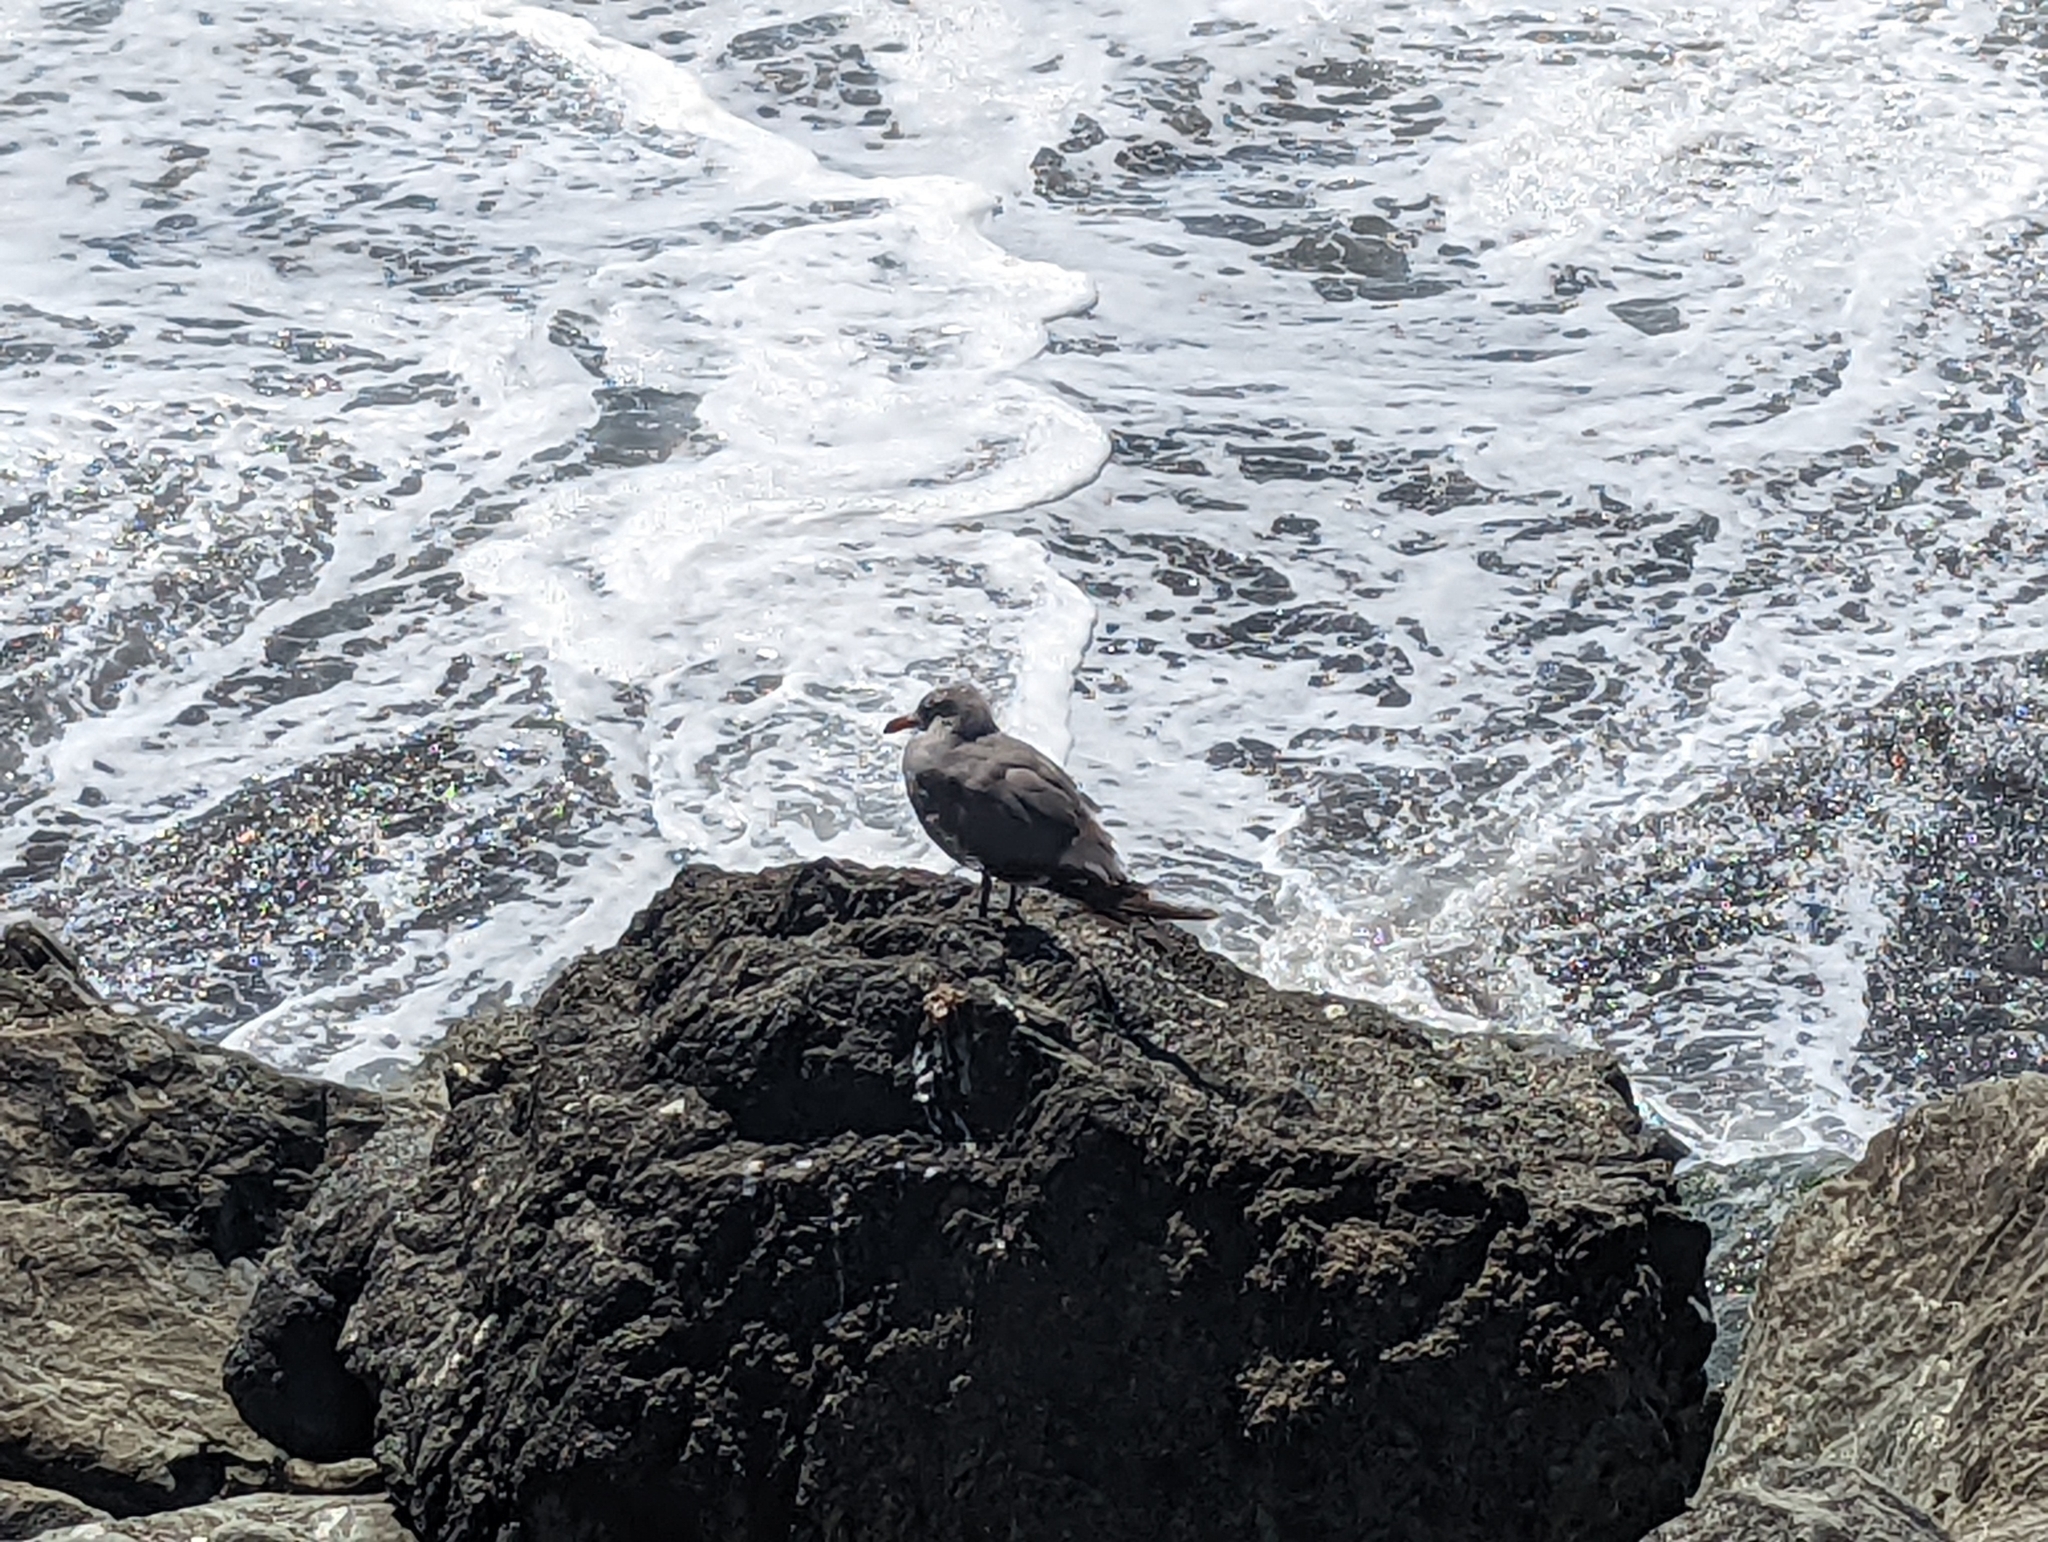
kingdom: Animalia
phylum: Chordata
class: Aves
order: Charadriiformes
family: Laridae
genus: Larus
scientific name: Larus heermanni
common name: Heermann's gull
